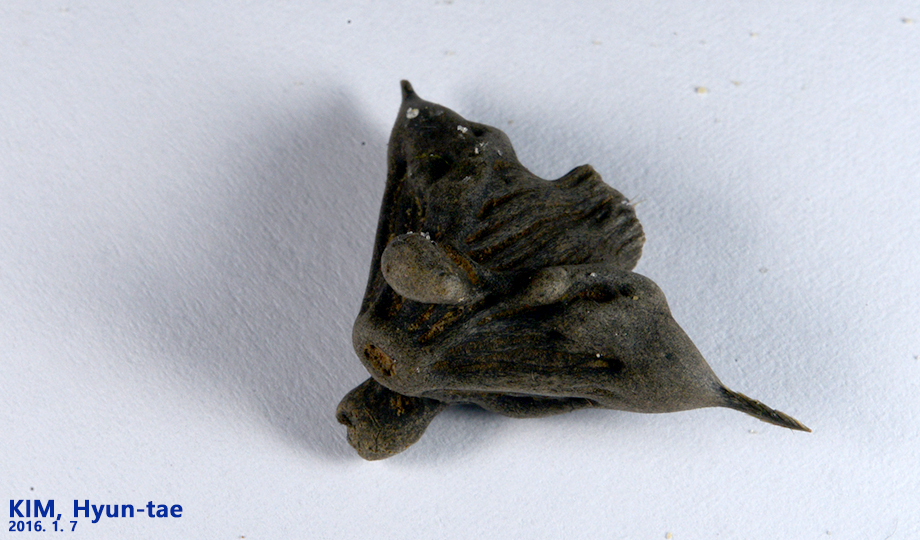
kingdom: Plantae
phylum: Tracheophyta
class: Magnoliopsida
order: Myrtales
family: Lythraceae
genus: Trapa
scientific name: Trapa natans
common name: Water chestnut
